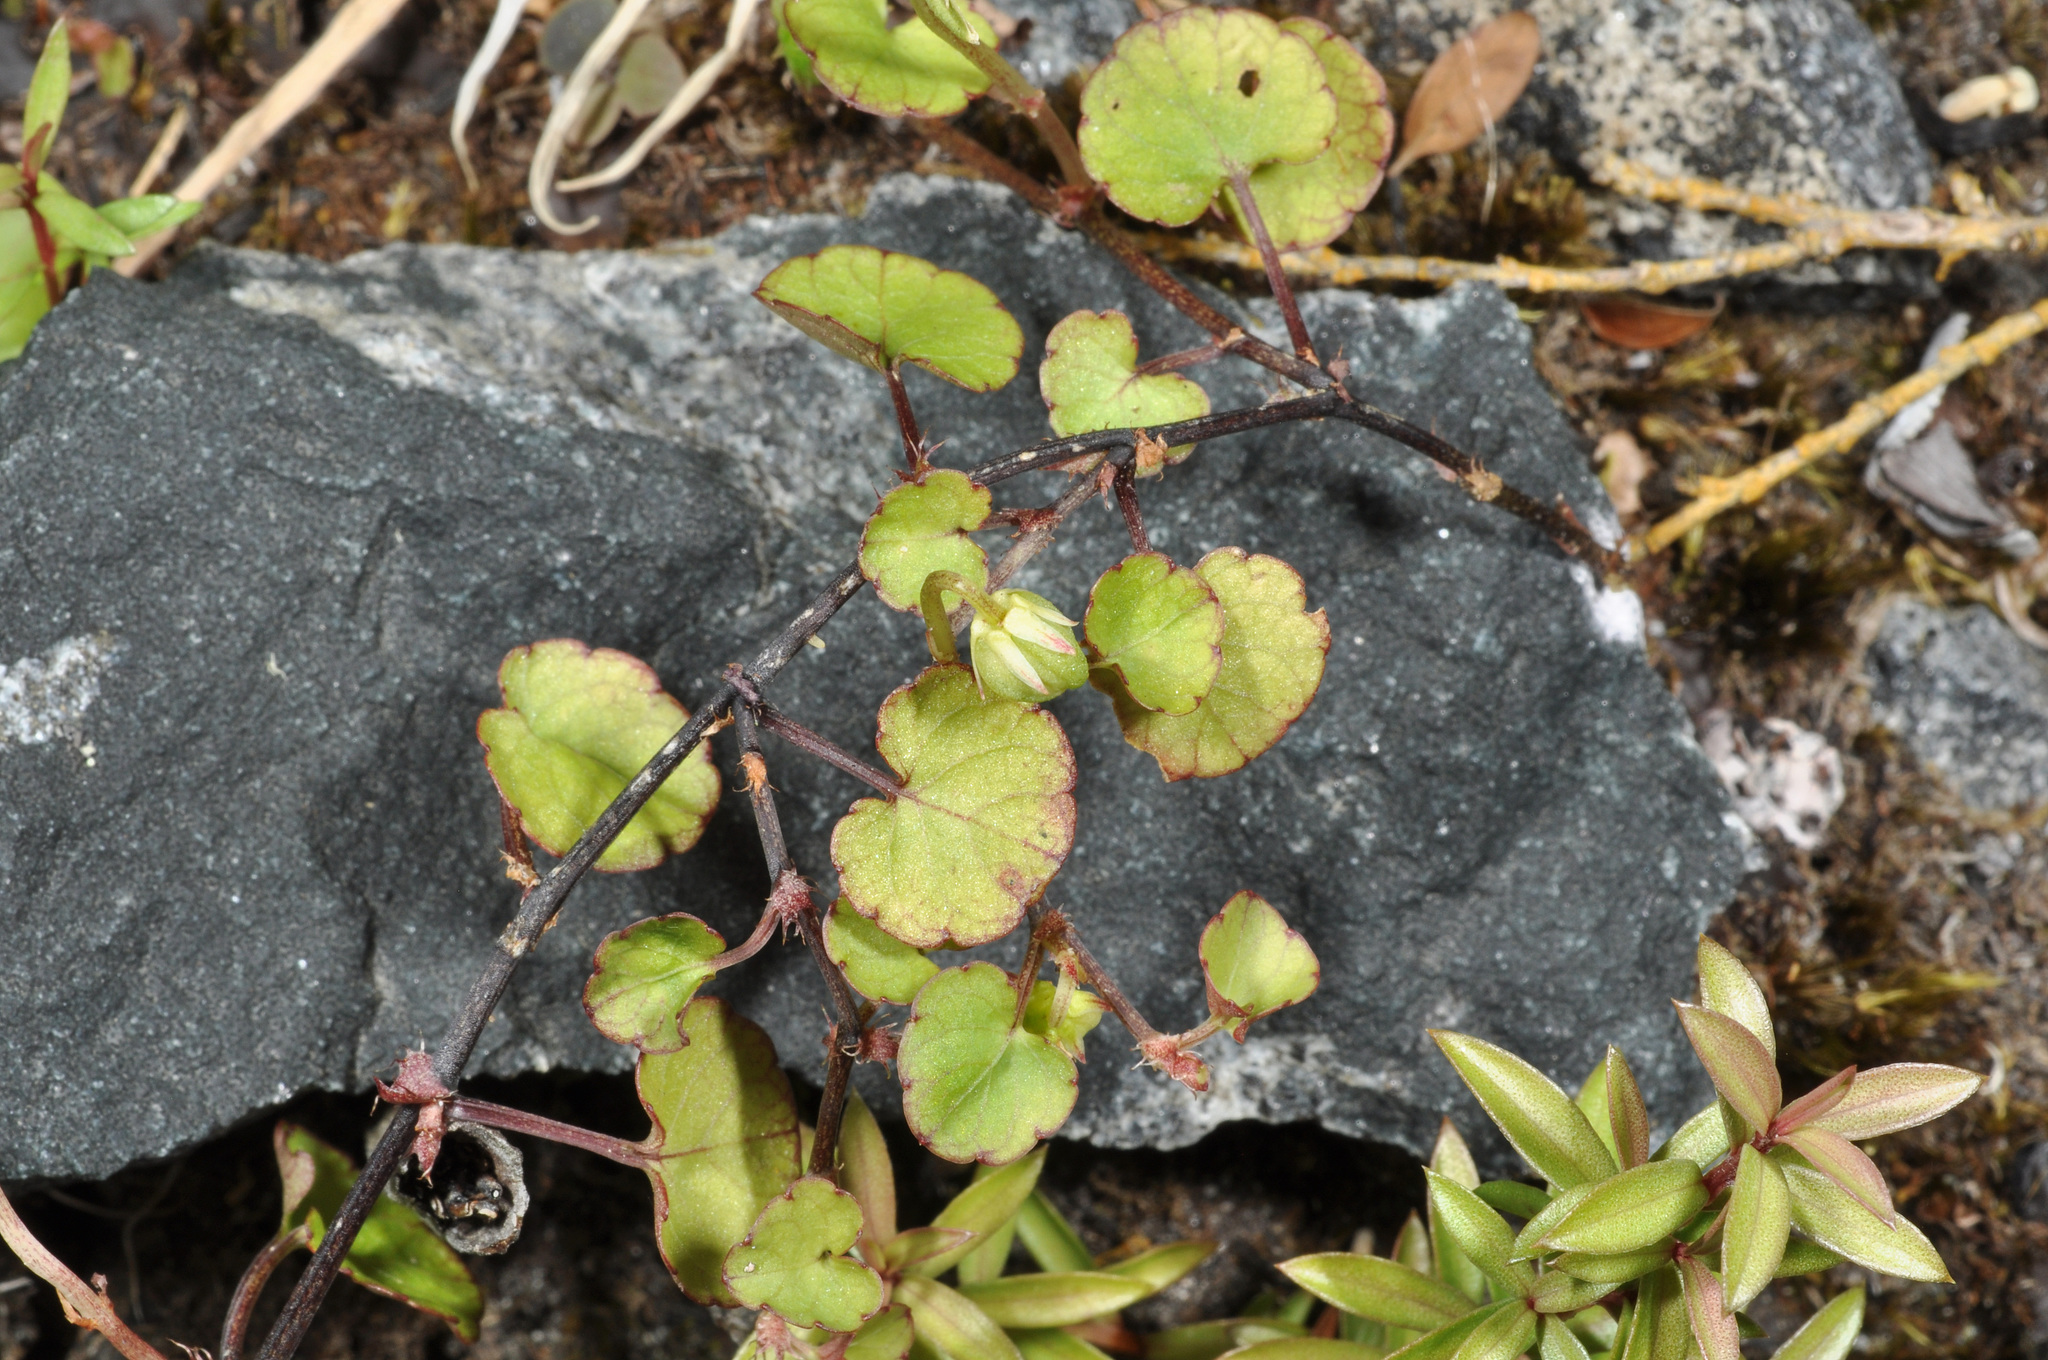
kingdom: Plantae
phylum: Tracheophyta
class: Magnoliopsida
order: Malpighiales
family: Violaceae
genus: Viola
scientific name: Viola filicaulis
